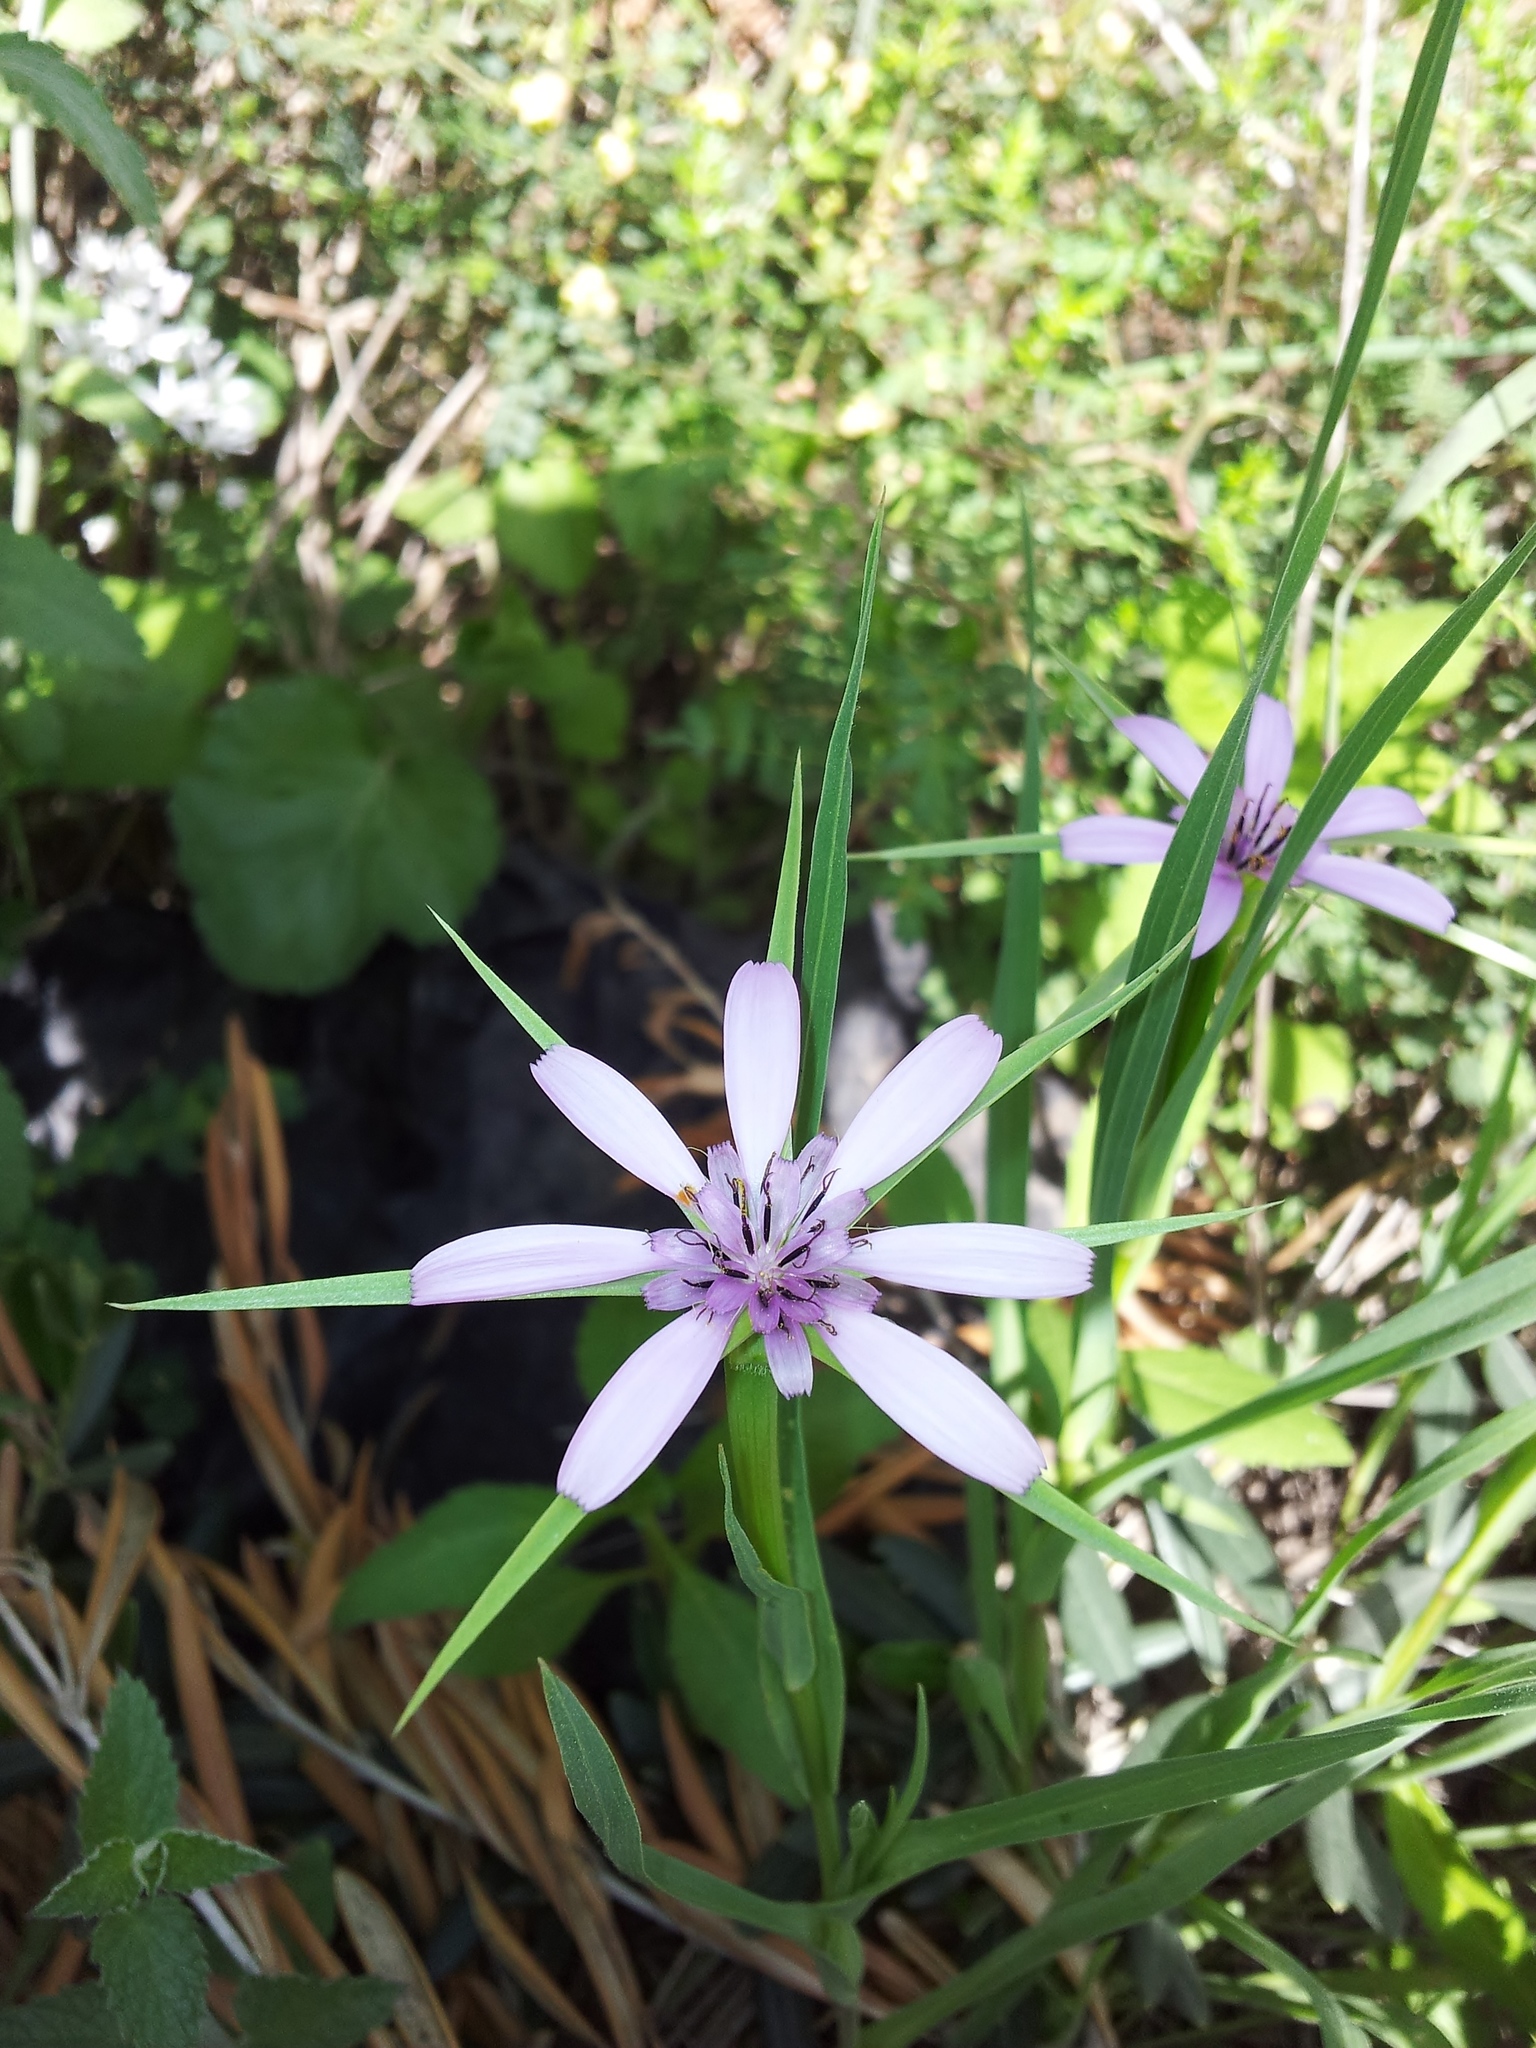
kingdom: Plantae
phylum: Tracheophyta
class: Magnoliopsida
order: Asterales
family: Asteraceae
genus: Geropogon
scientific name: Geropogon hybridus
